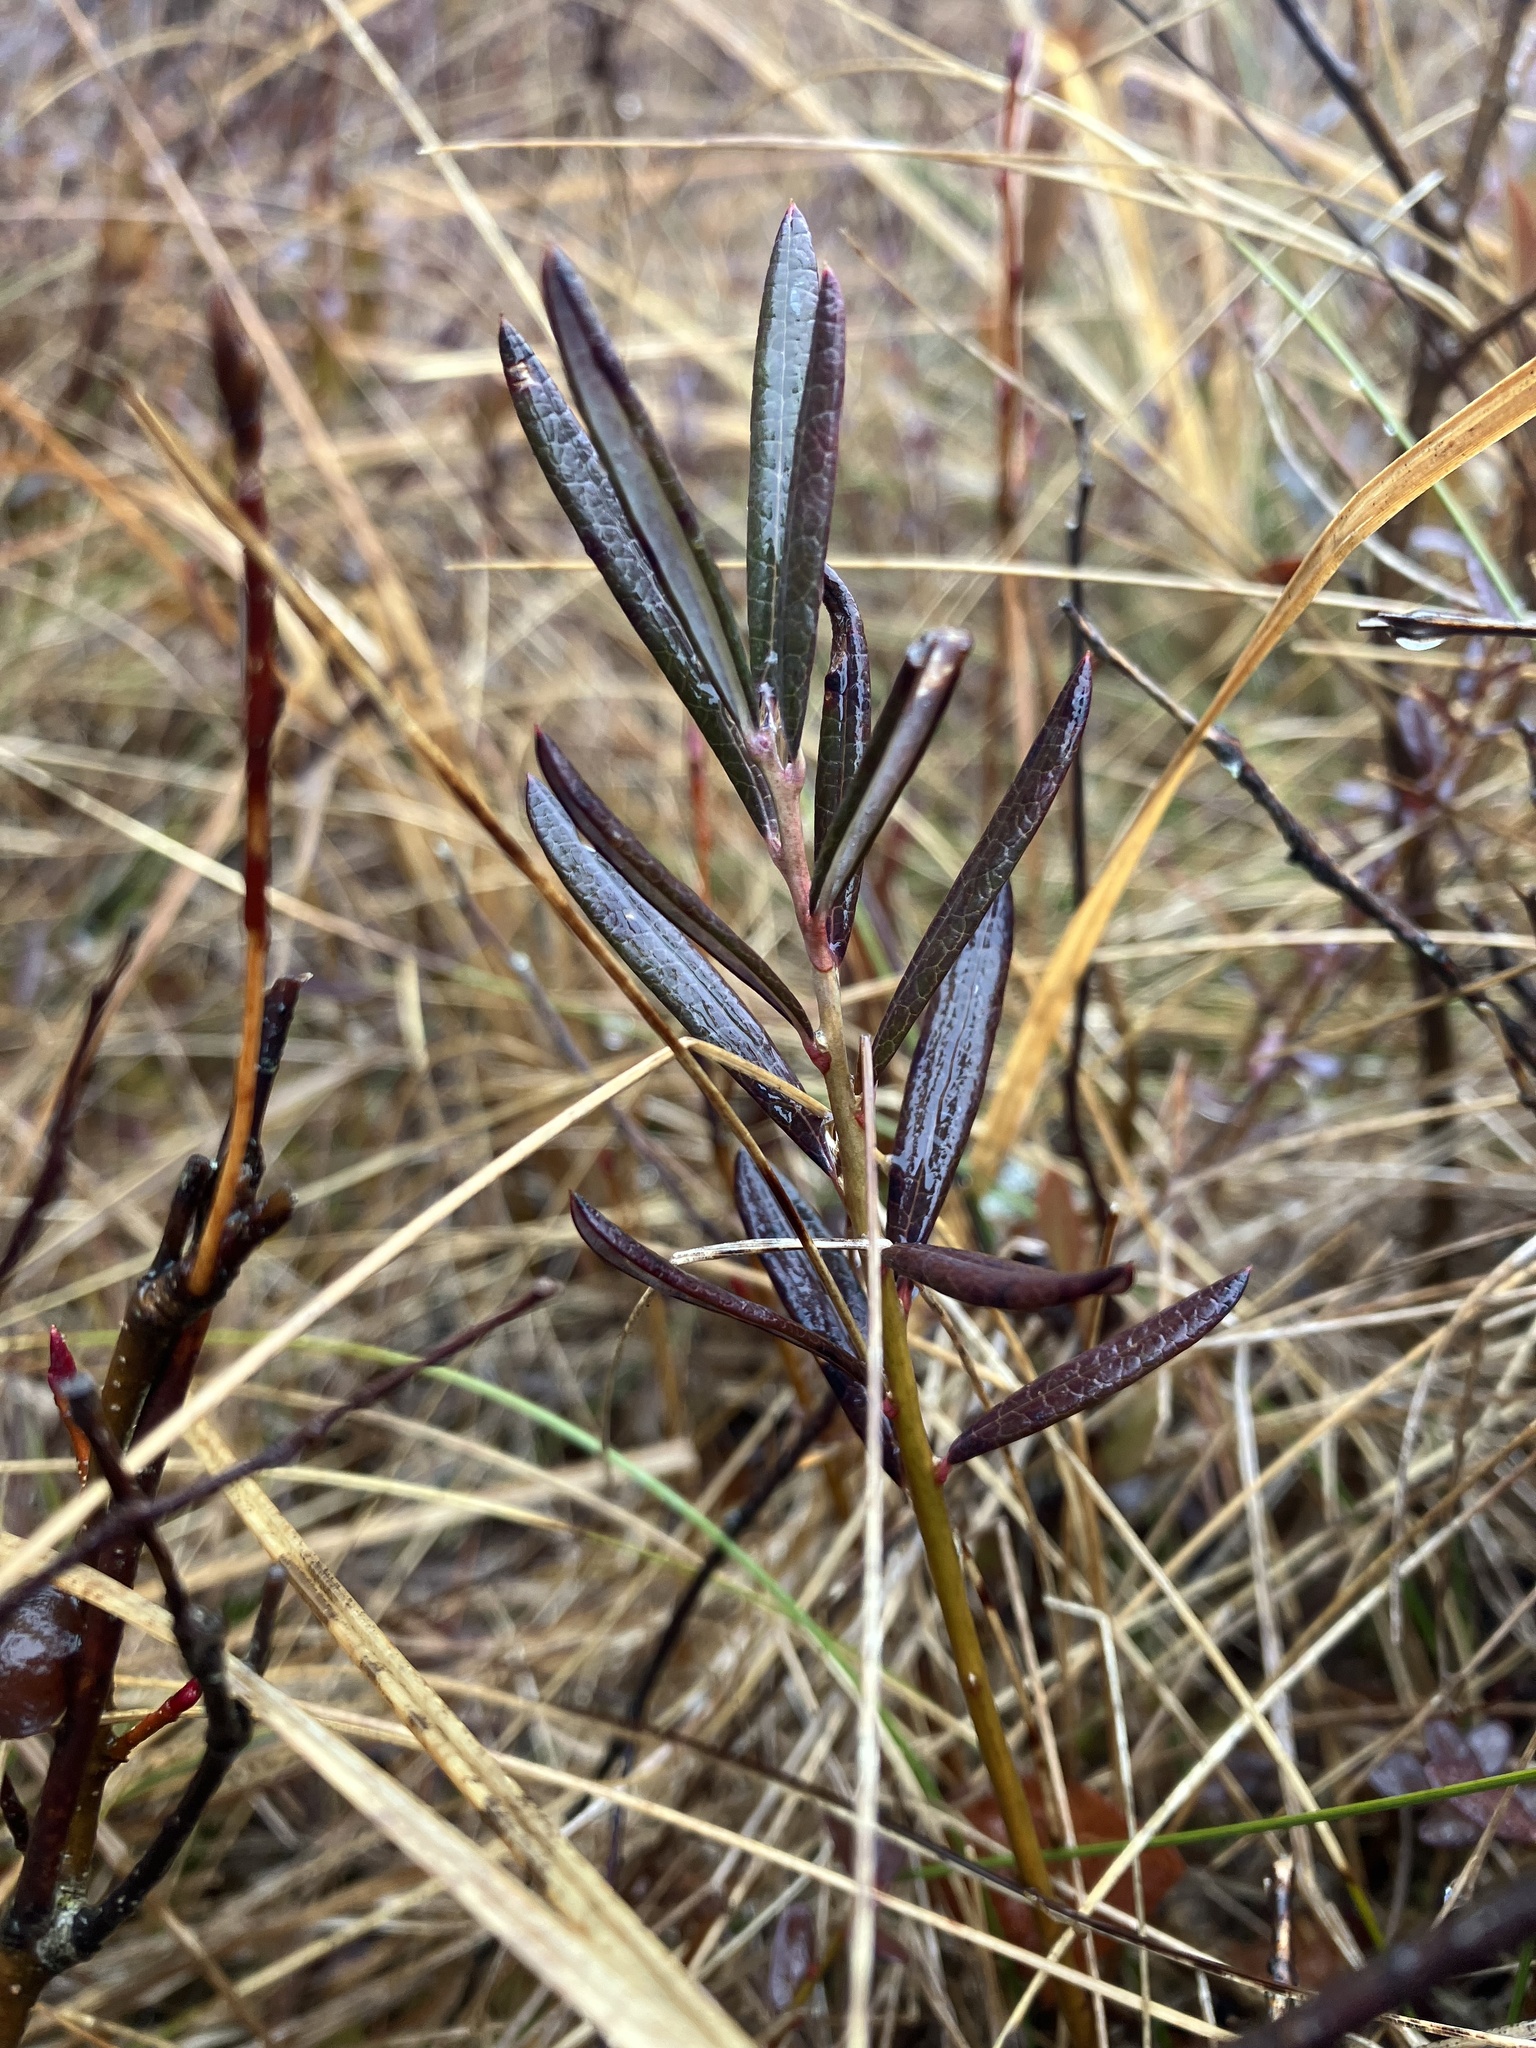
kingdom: Plantae
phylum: Tracheophyta
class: Magnoliopsida
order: Ericales
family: Ericaceae
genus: Andromeda
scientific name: Andromeda polifolia
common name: Bog-rosemary
